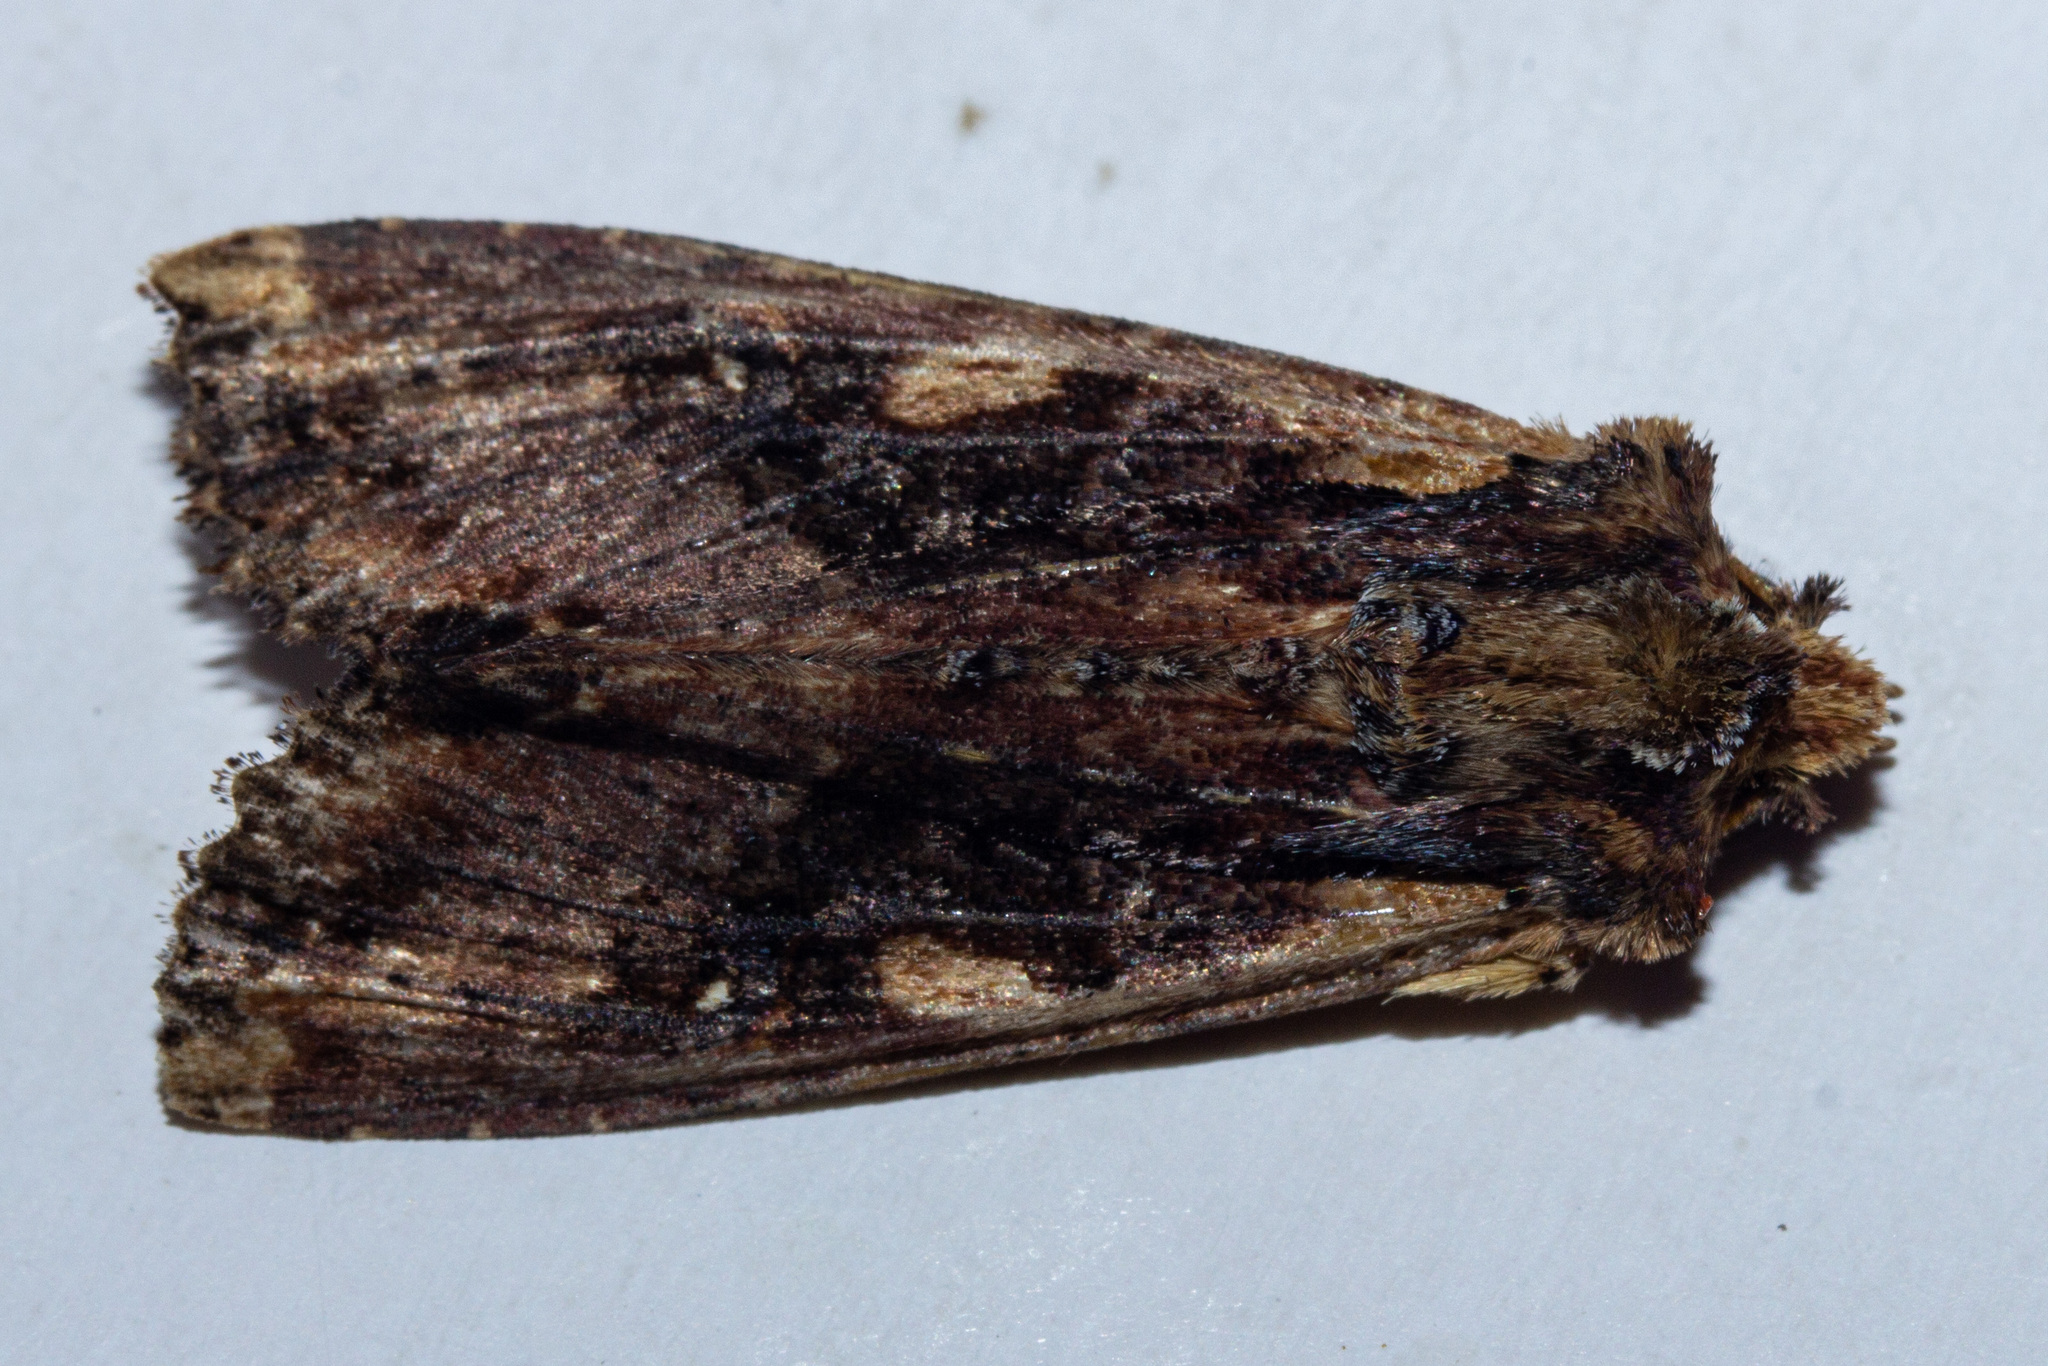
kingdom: Animalia
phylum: Arthropoda
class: Insecta
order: Lepidoptera
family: Noctuidae
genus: Meterana
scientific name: Meterana stipata
